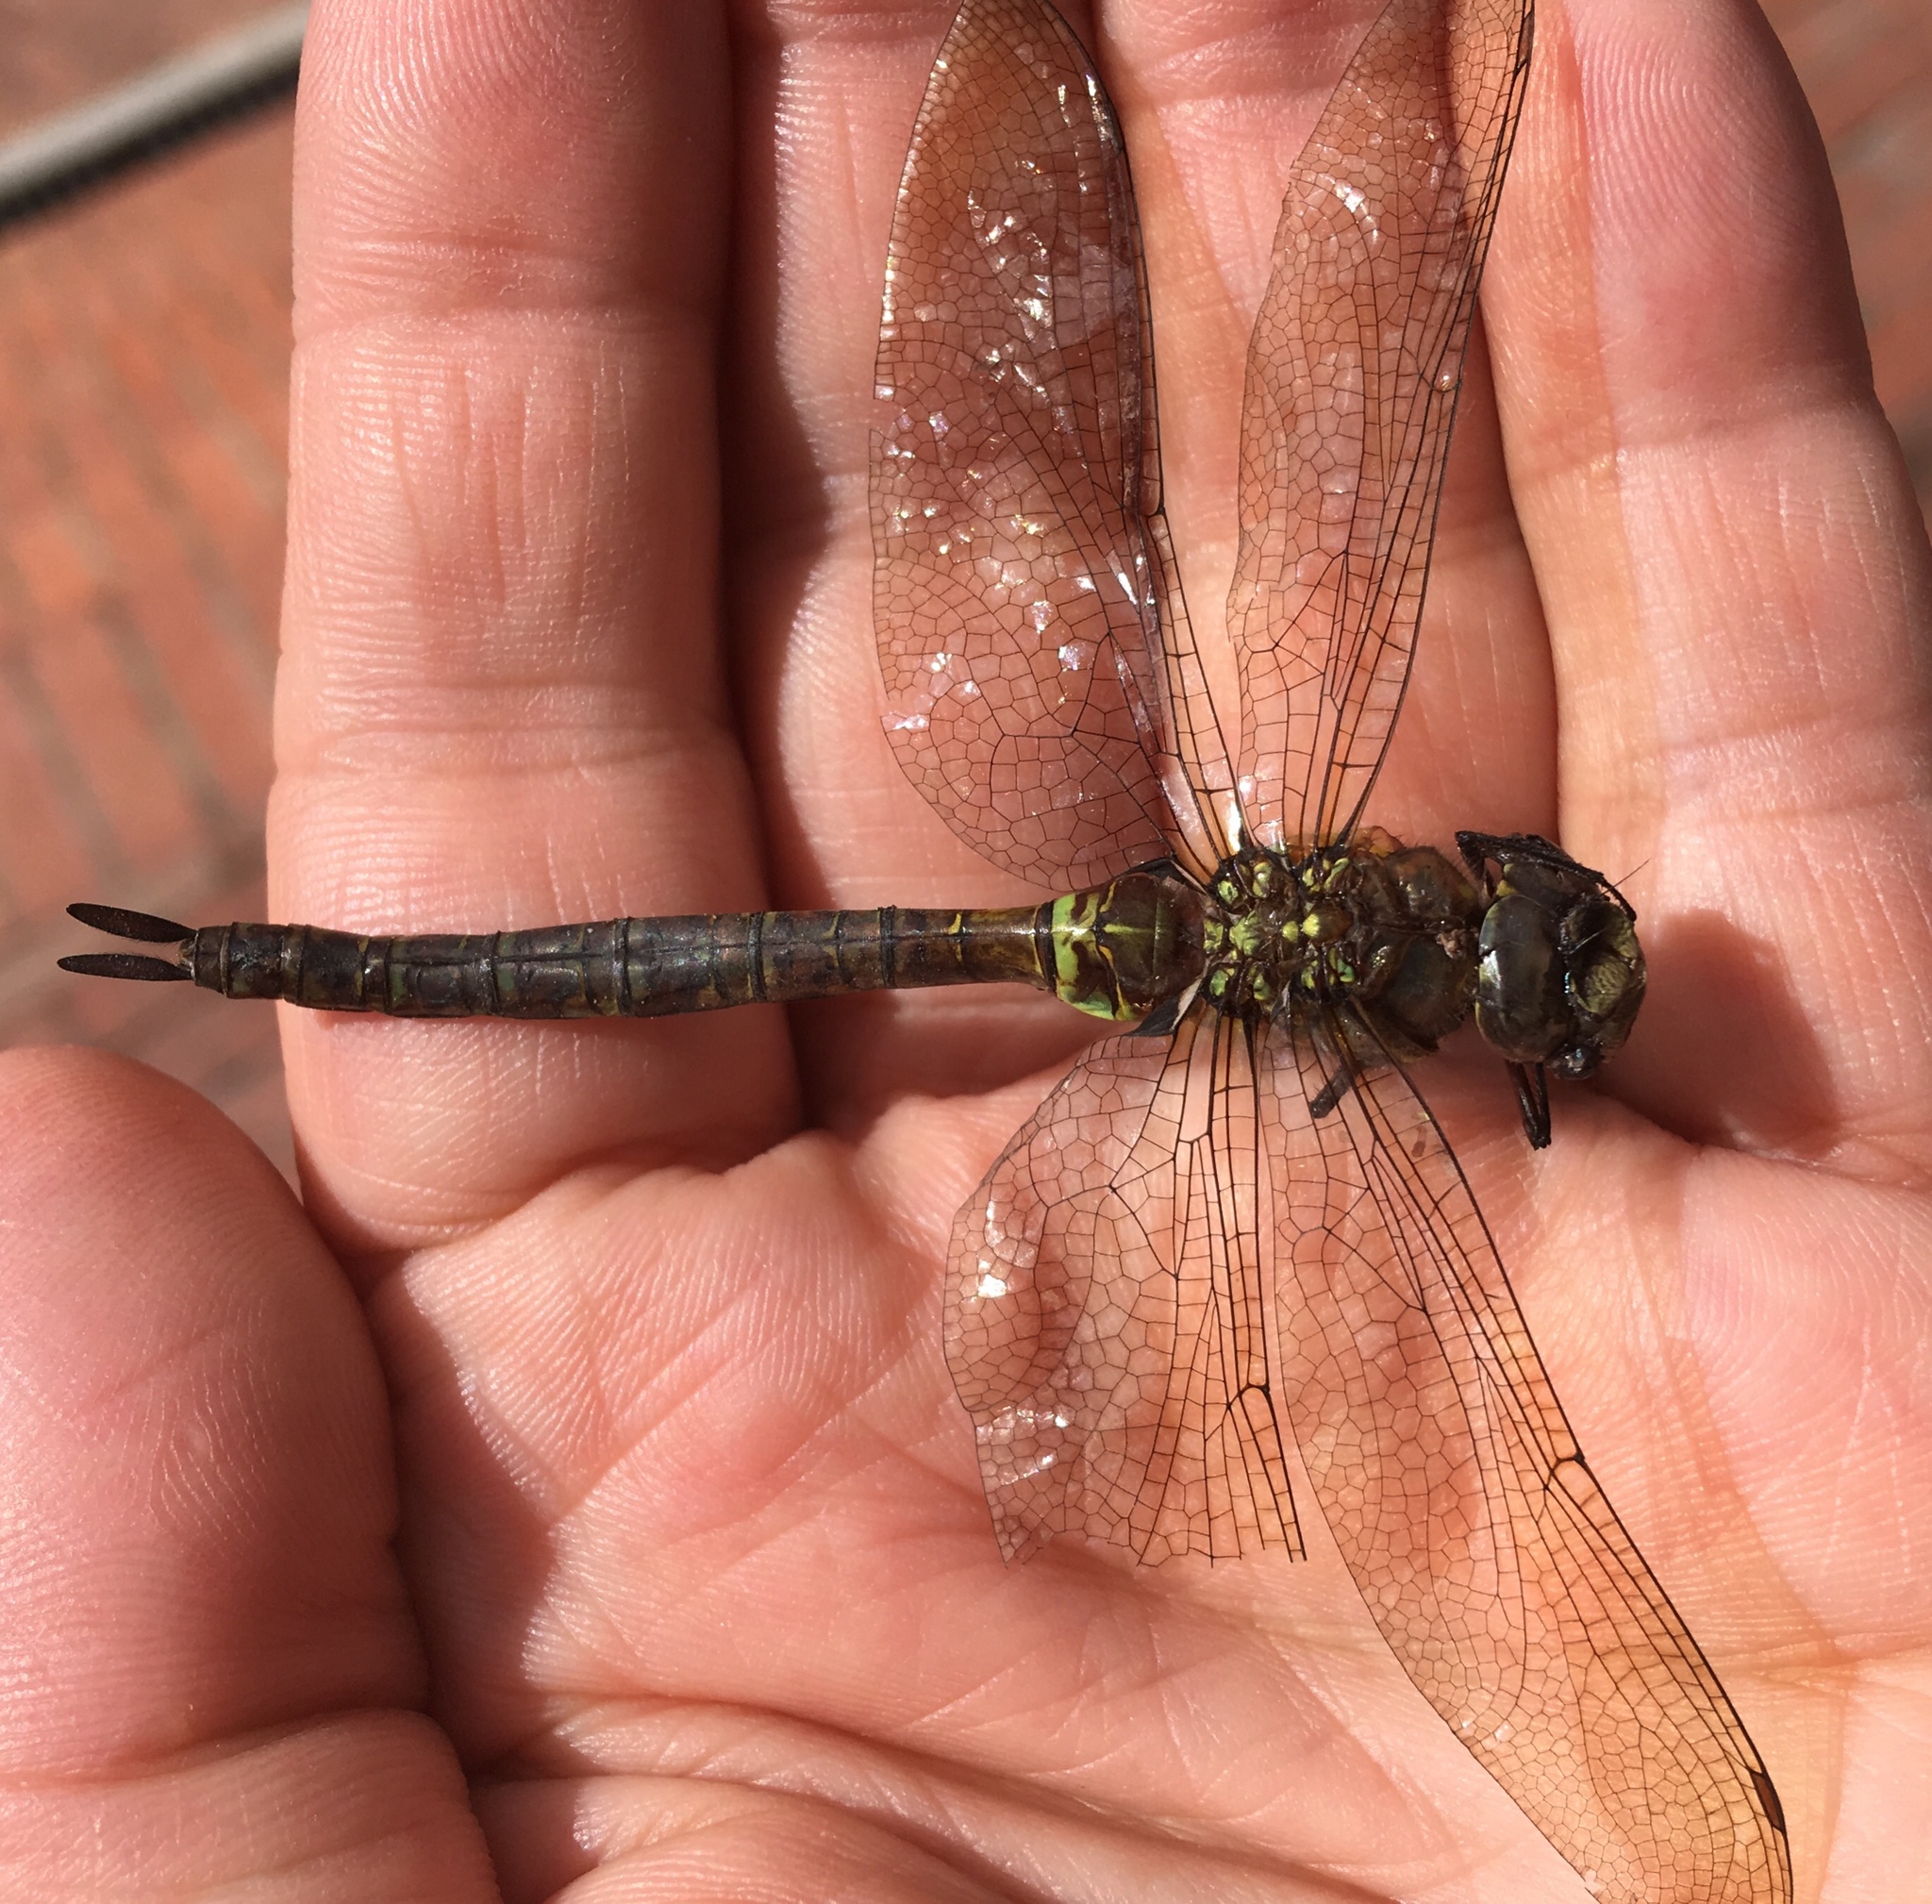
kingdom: Animalia
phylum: Arthropoda
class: Insecta
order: Odonata
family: Aeshnidae
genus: Rhionaeschna
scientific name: Rhionaeschna marchali
